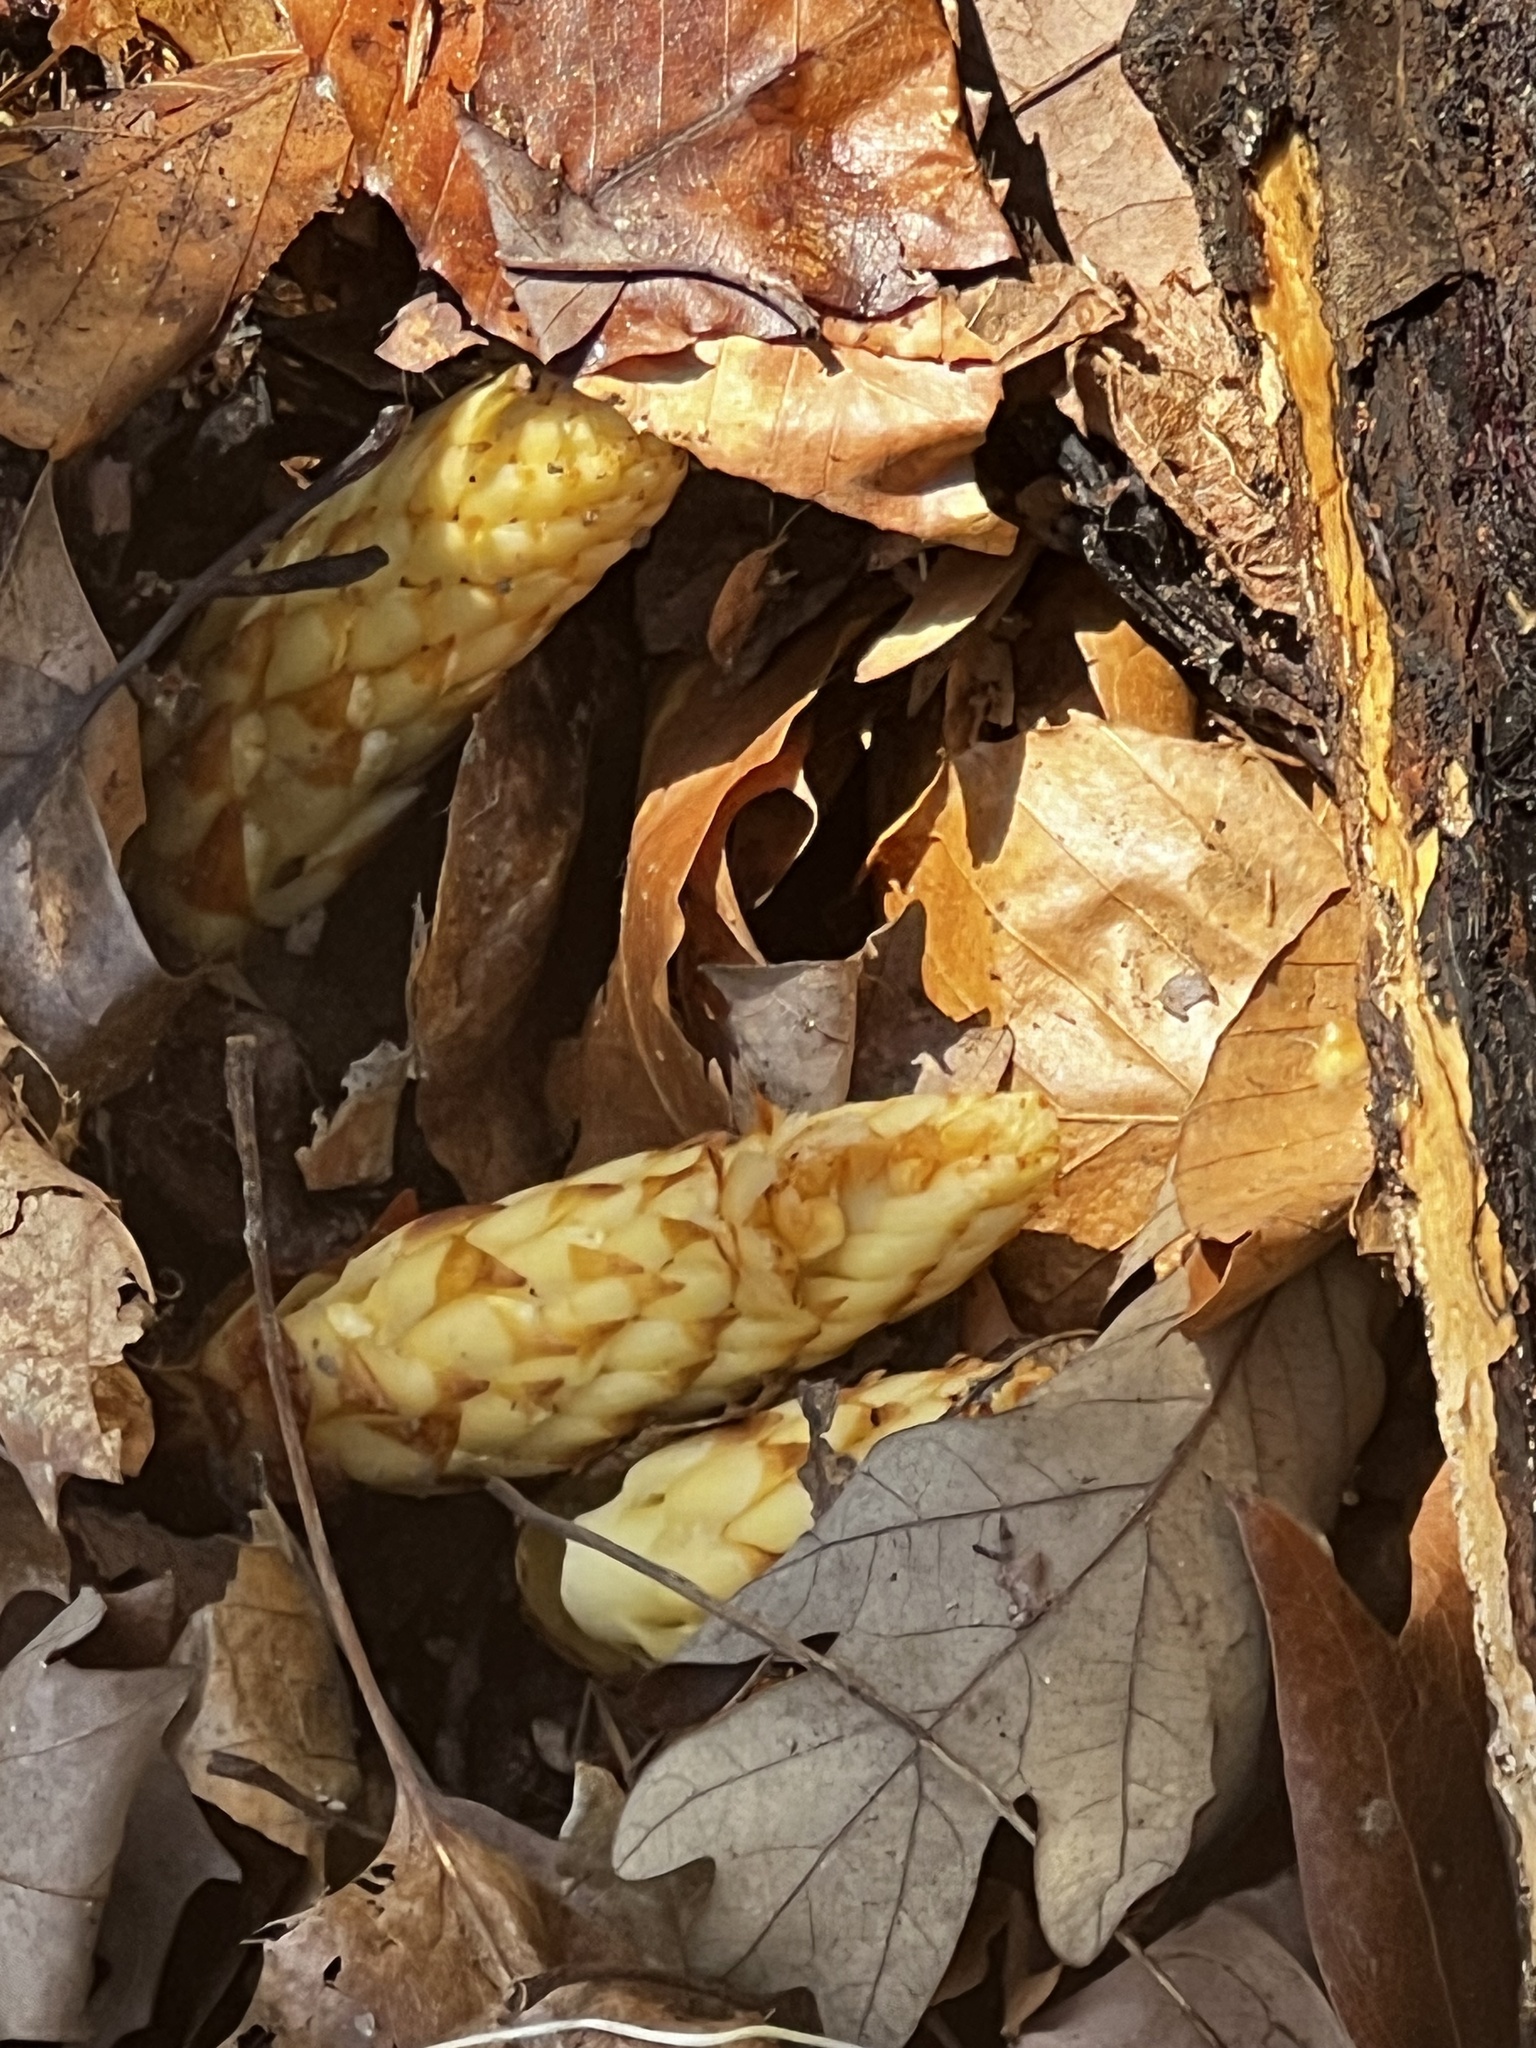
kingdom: Plantae
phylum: Tracheophyta
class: Magnoliopsida
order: Lamiales
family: Orobanchaceae
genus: Conopholis
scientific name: Conopholis americana
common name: American cancer-root
